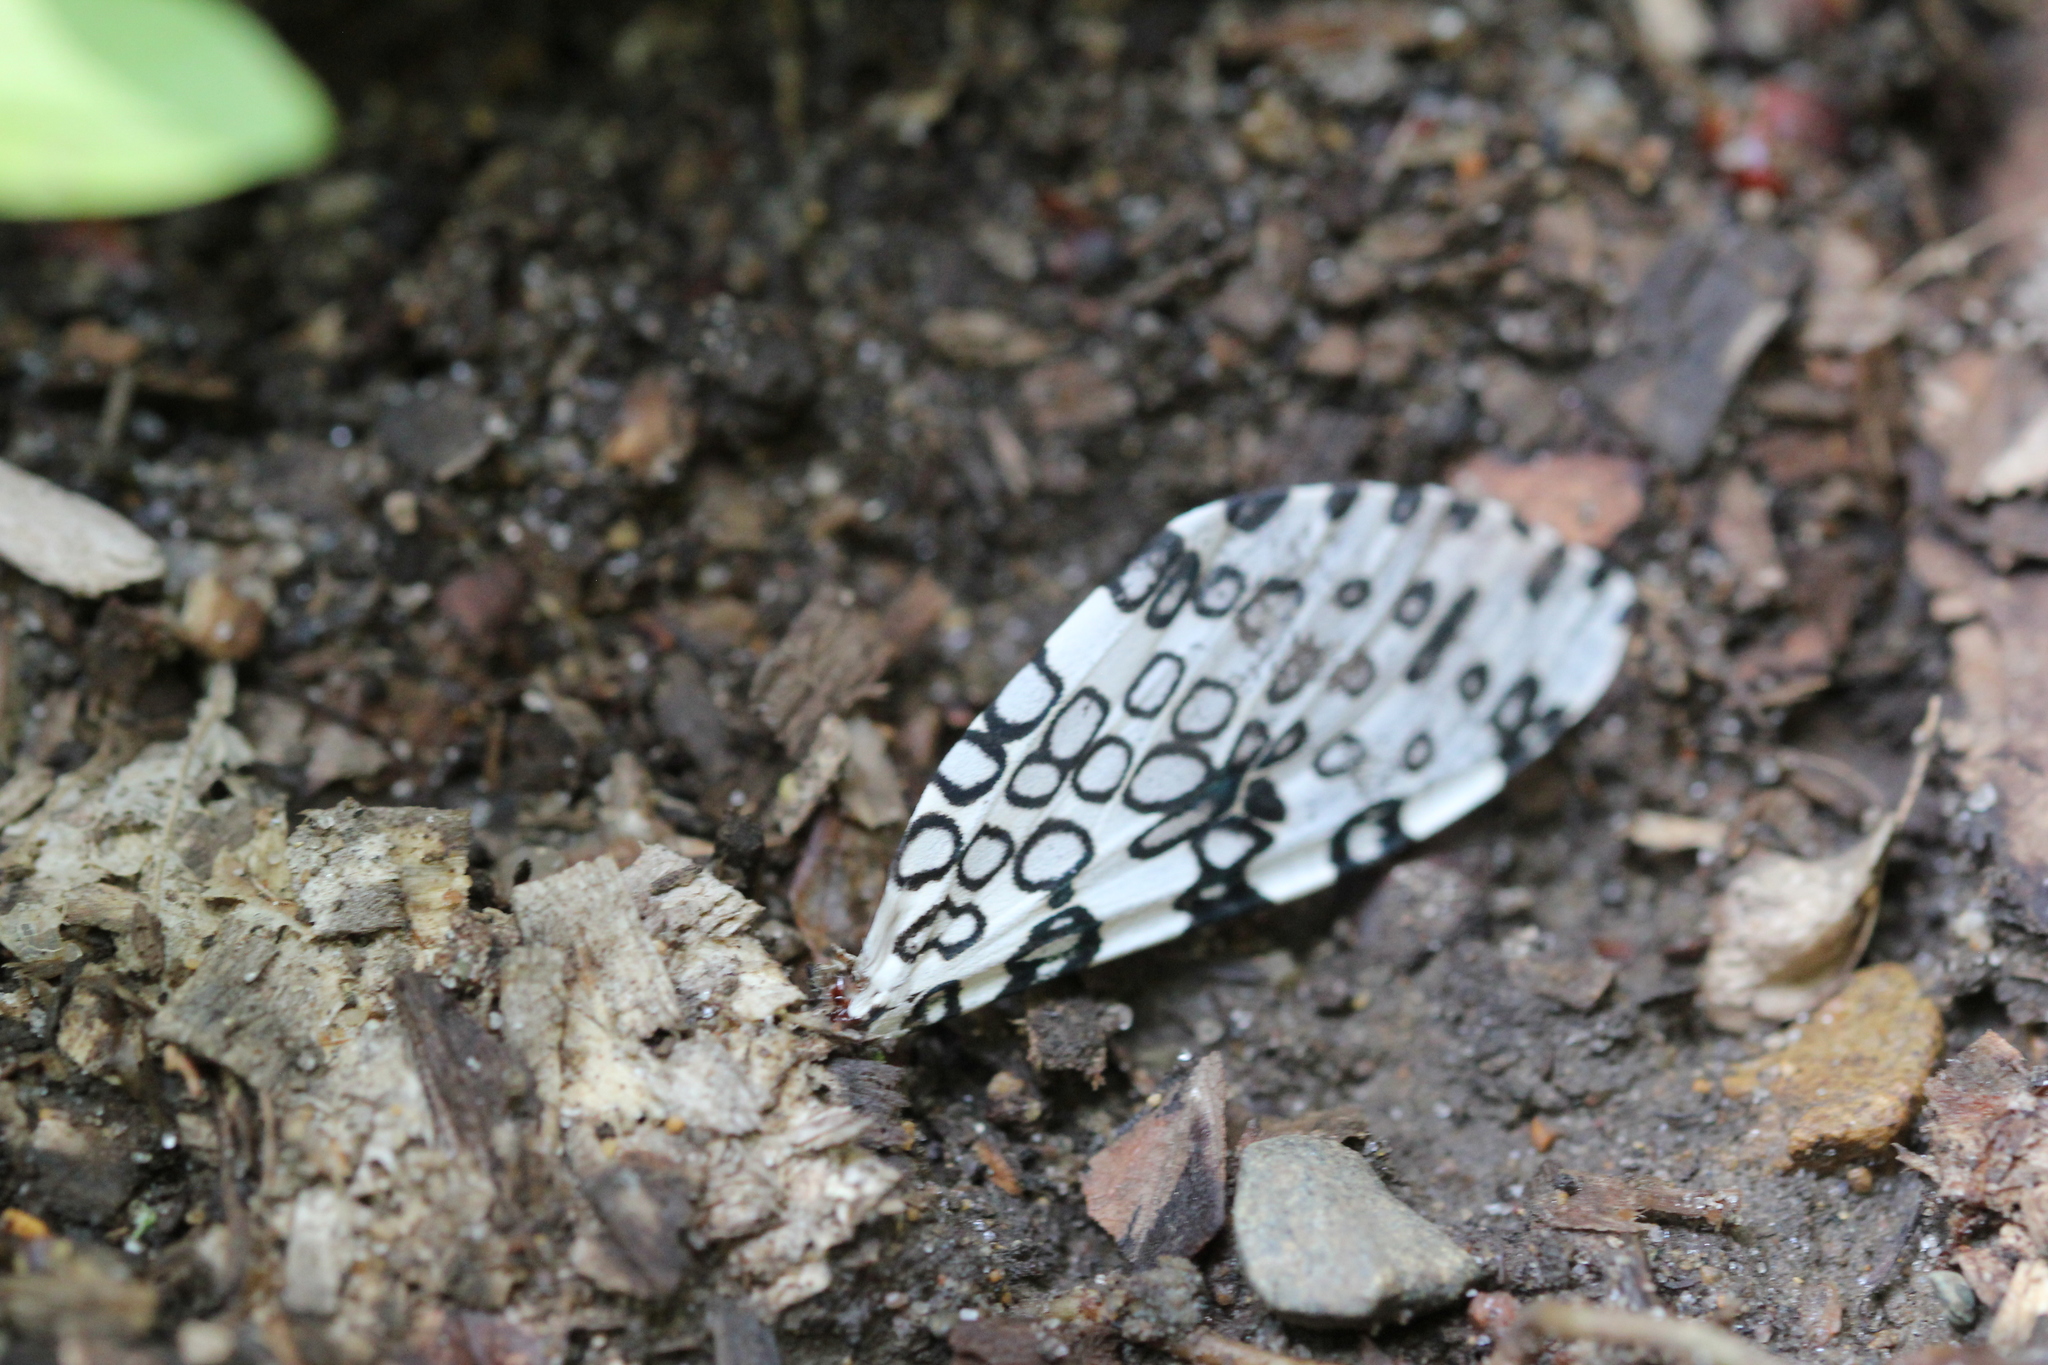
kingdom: Animalia
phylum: Arthropoda
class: Insecta
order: Lepidoptera
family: Erebidae
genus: Hypercompe
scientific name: Hypercompe scribonia
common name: Giant leopard moth
